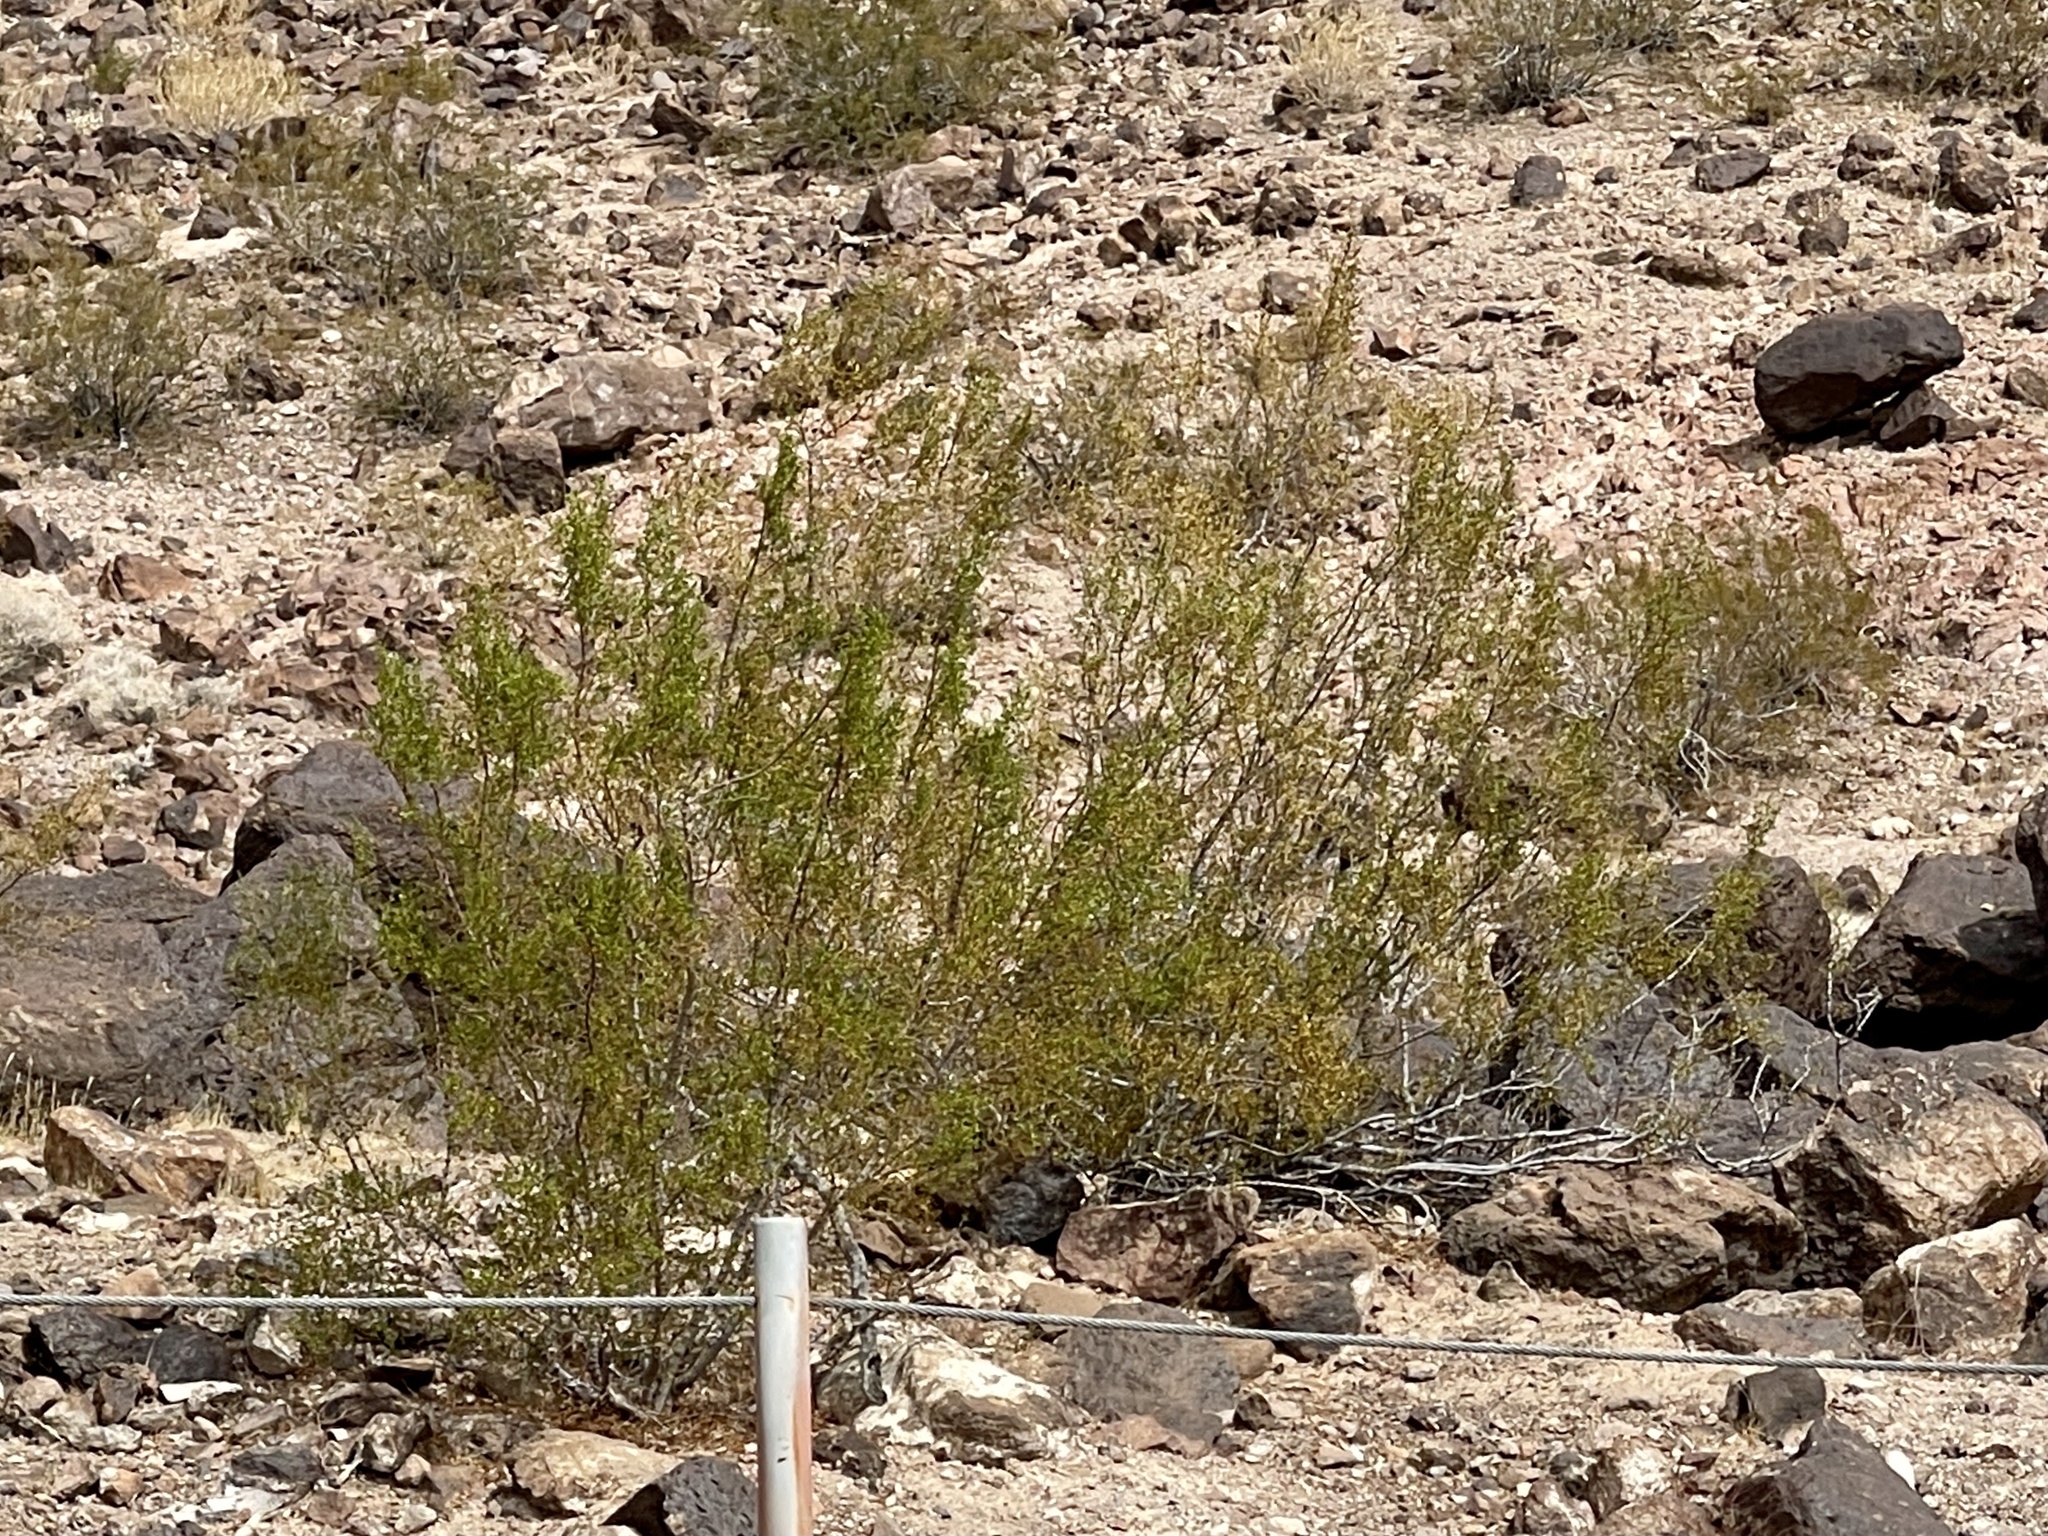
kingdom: Plantae
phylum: Tracheophyta
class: Magnoliopsida
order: Zygophyllales
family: Zygophyllaceae
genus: Larrea
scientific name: Larrea tridentata
